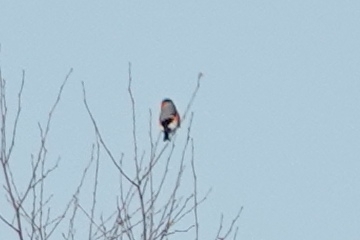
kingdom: Animalia
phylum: Chordata
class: Aves
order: Passeriformes
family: Fringillidae
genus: Pyrrhula
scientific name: Pyrrhula pyrrhula
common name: Eurasian bullfinch
